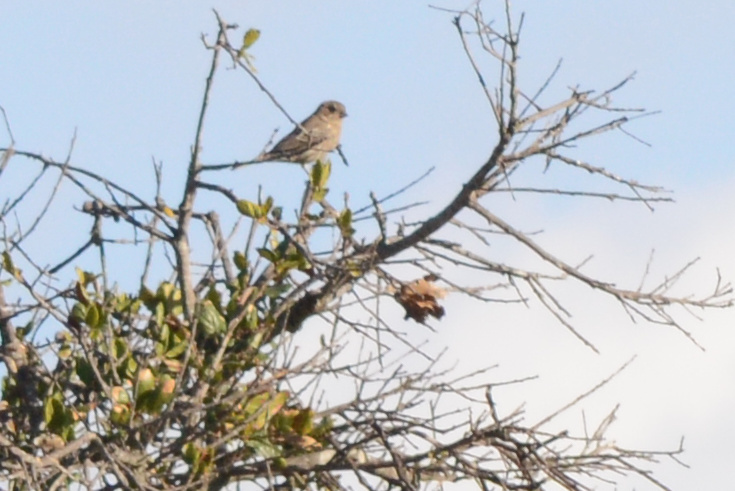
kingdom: Animalia
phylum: Chordata
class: Aves
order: Passeriformes
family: Estrildidae
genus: Lonchura
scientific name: Lonchura punctulata
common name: Scaly-breasted munia
